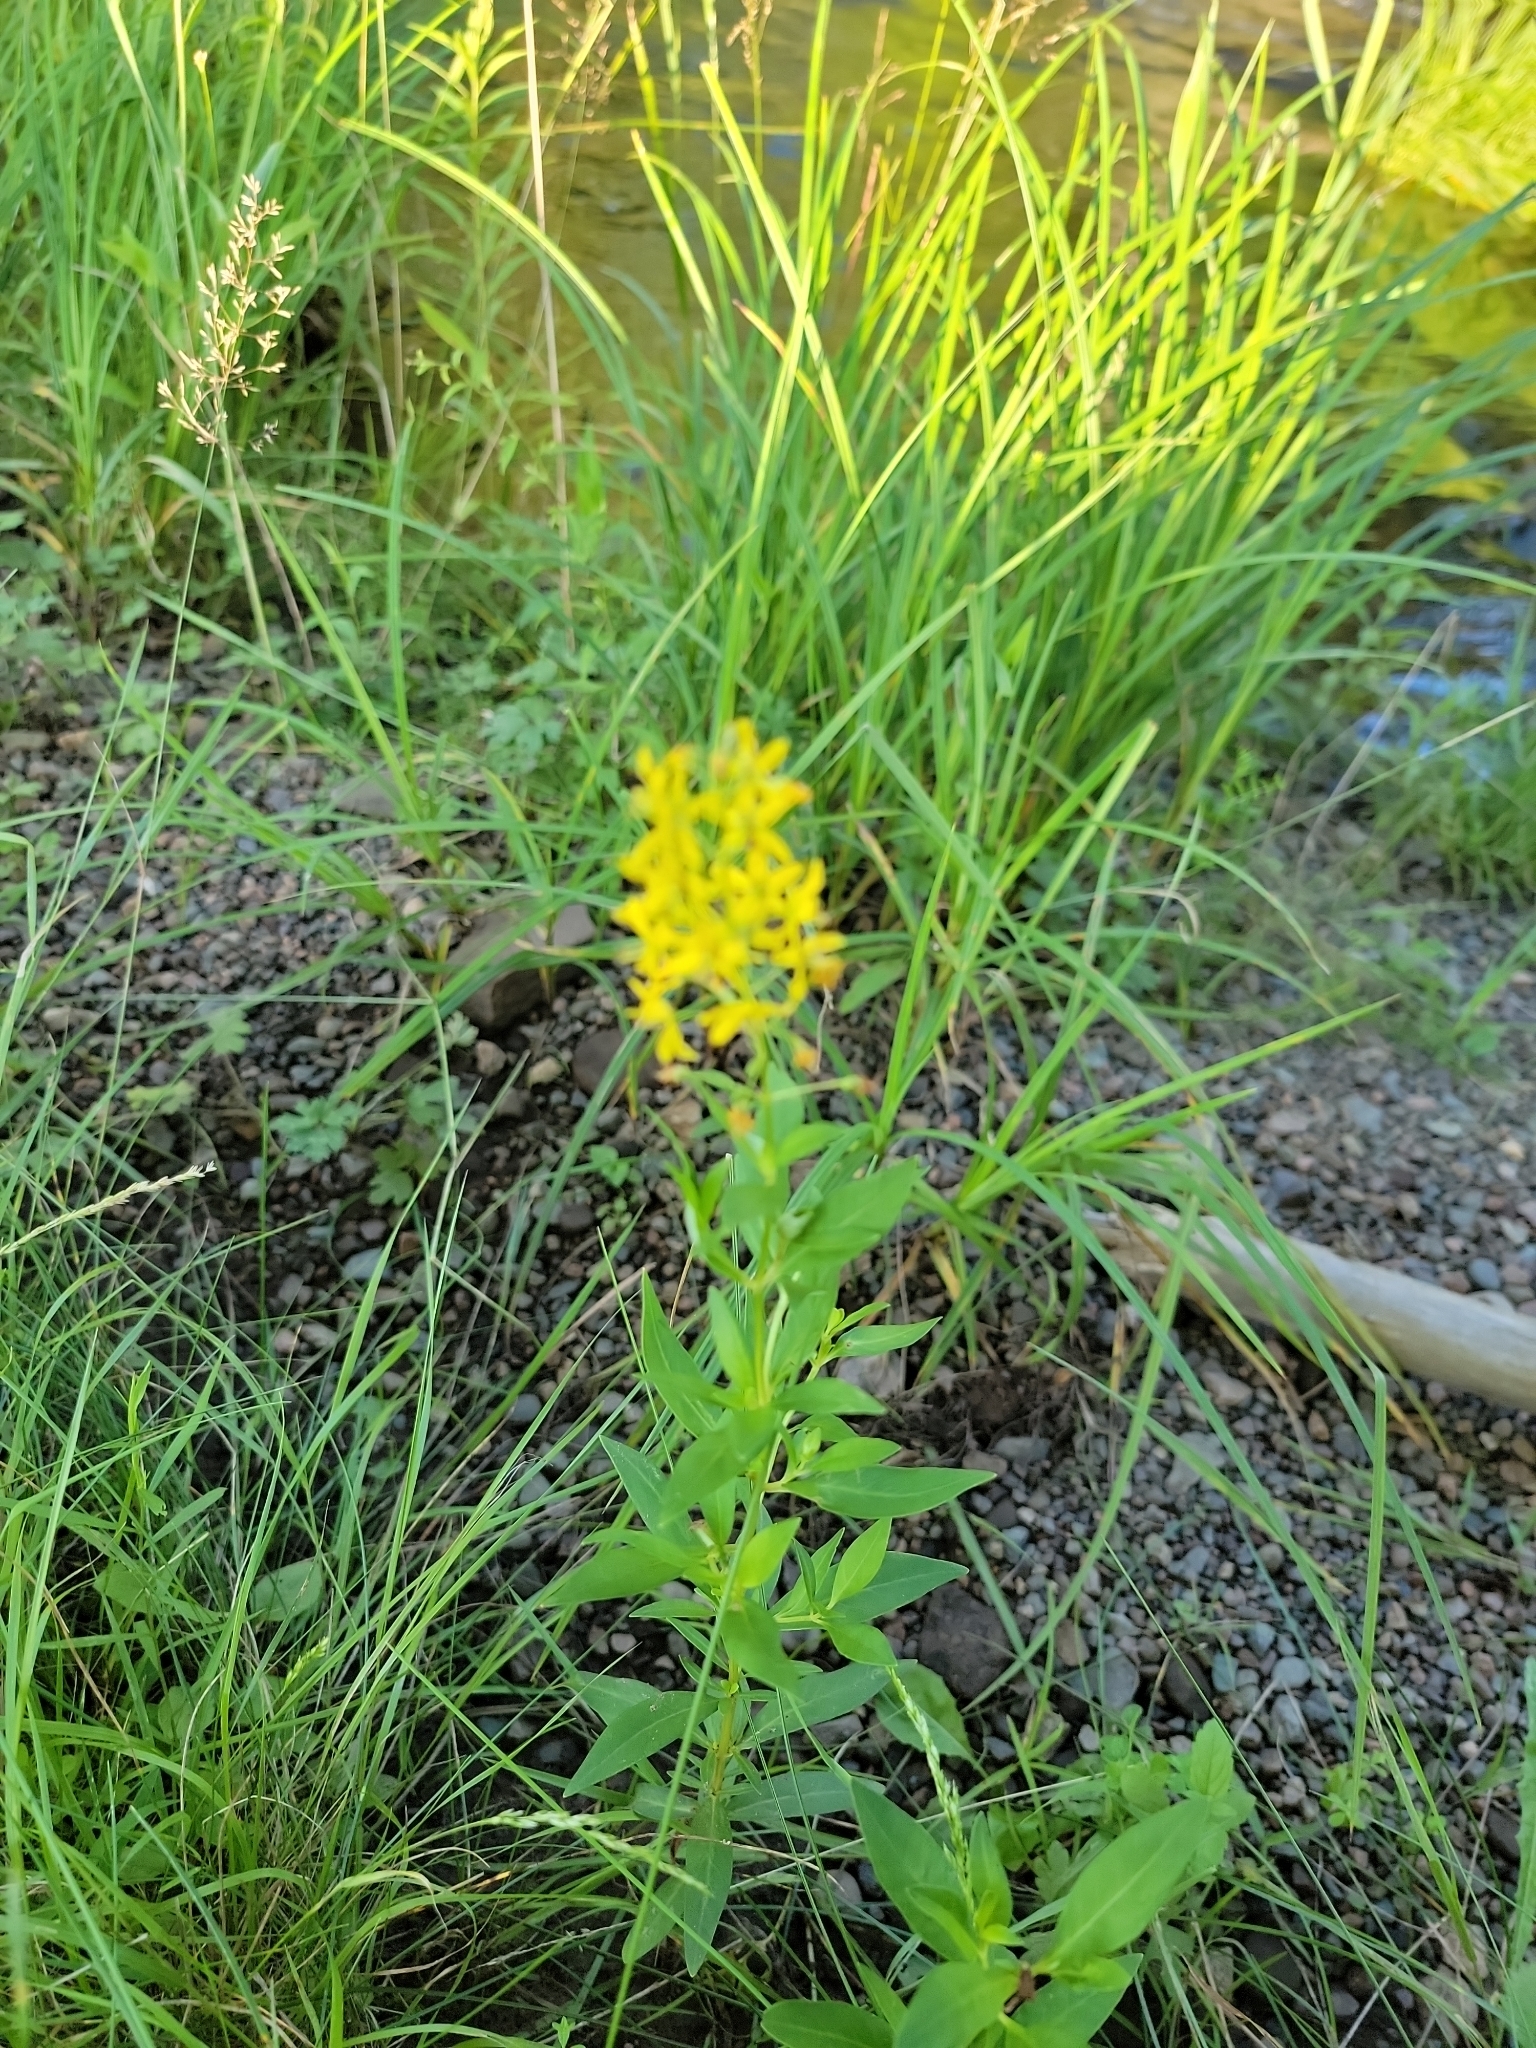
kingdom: Plantae
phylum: Tracheophyta
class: Magnoliopsida
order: Ericales
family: Primulaceae
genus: Lysimachia
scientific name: Lysimachia terrestris
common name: Lake loosestrife
